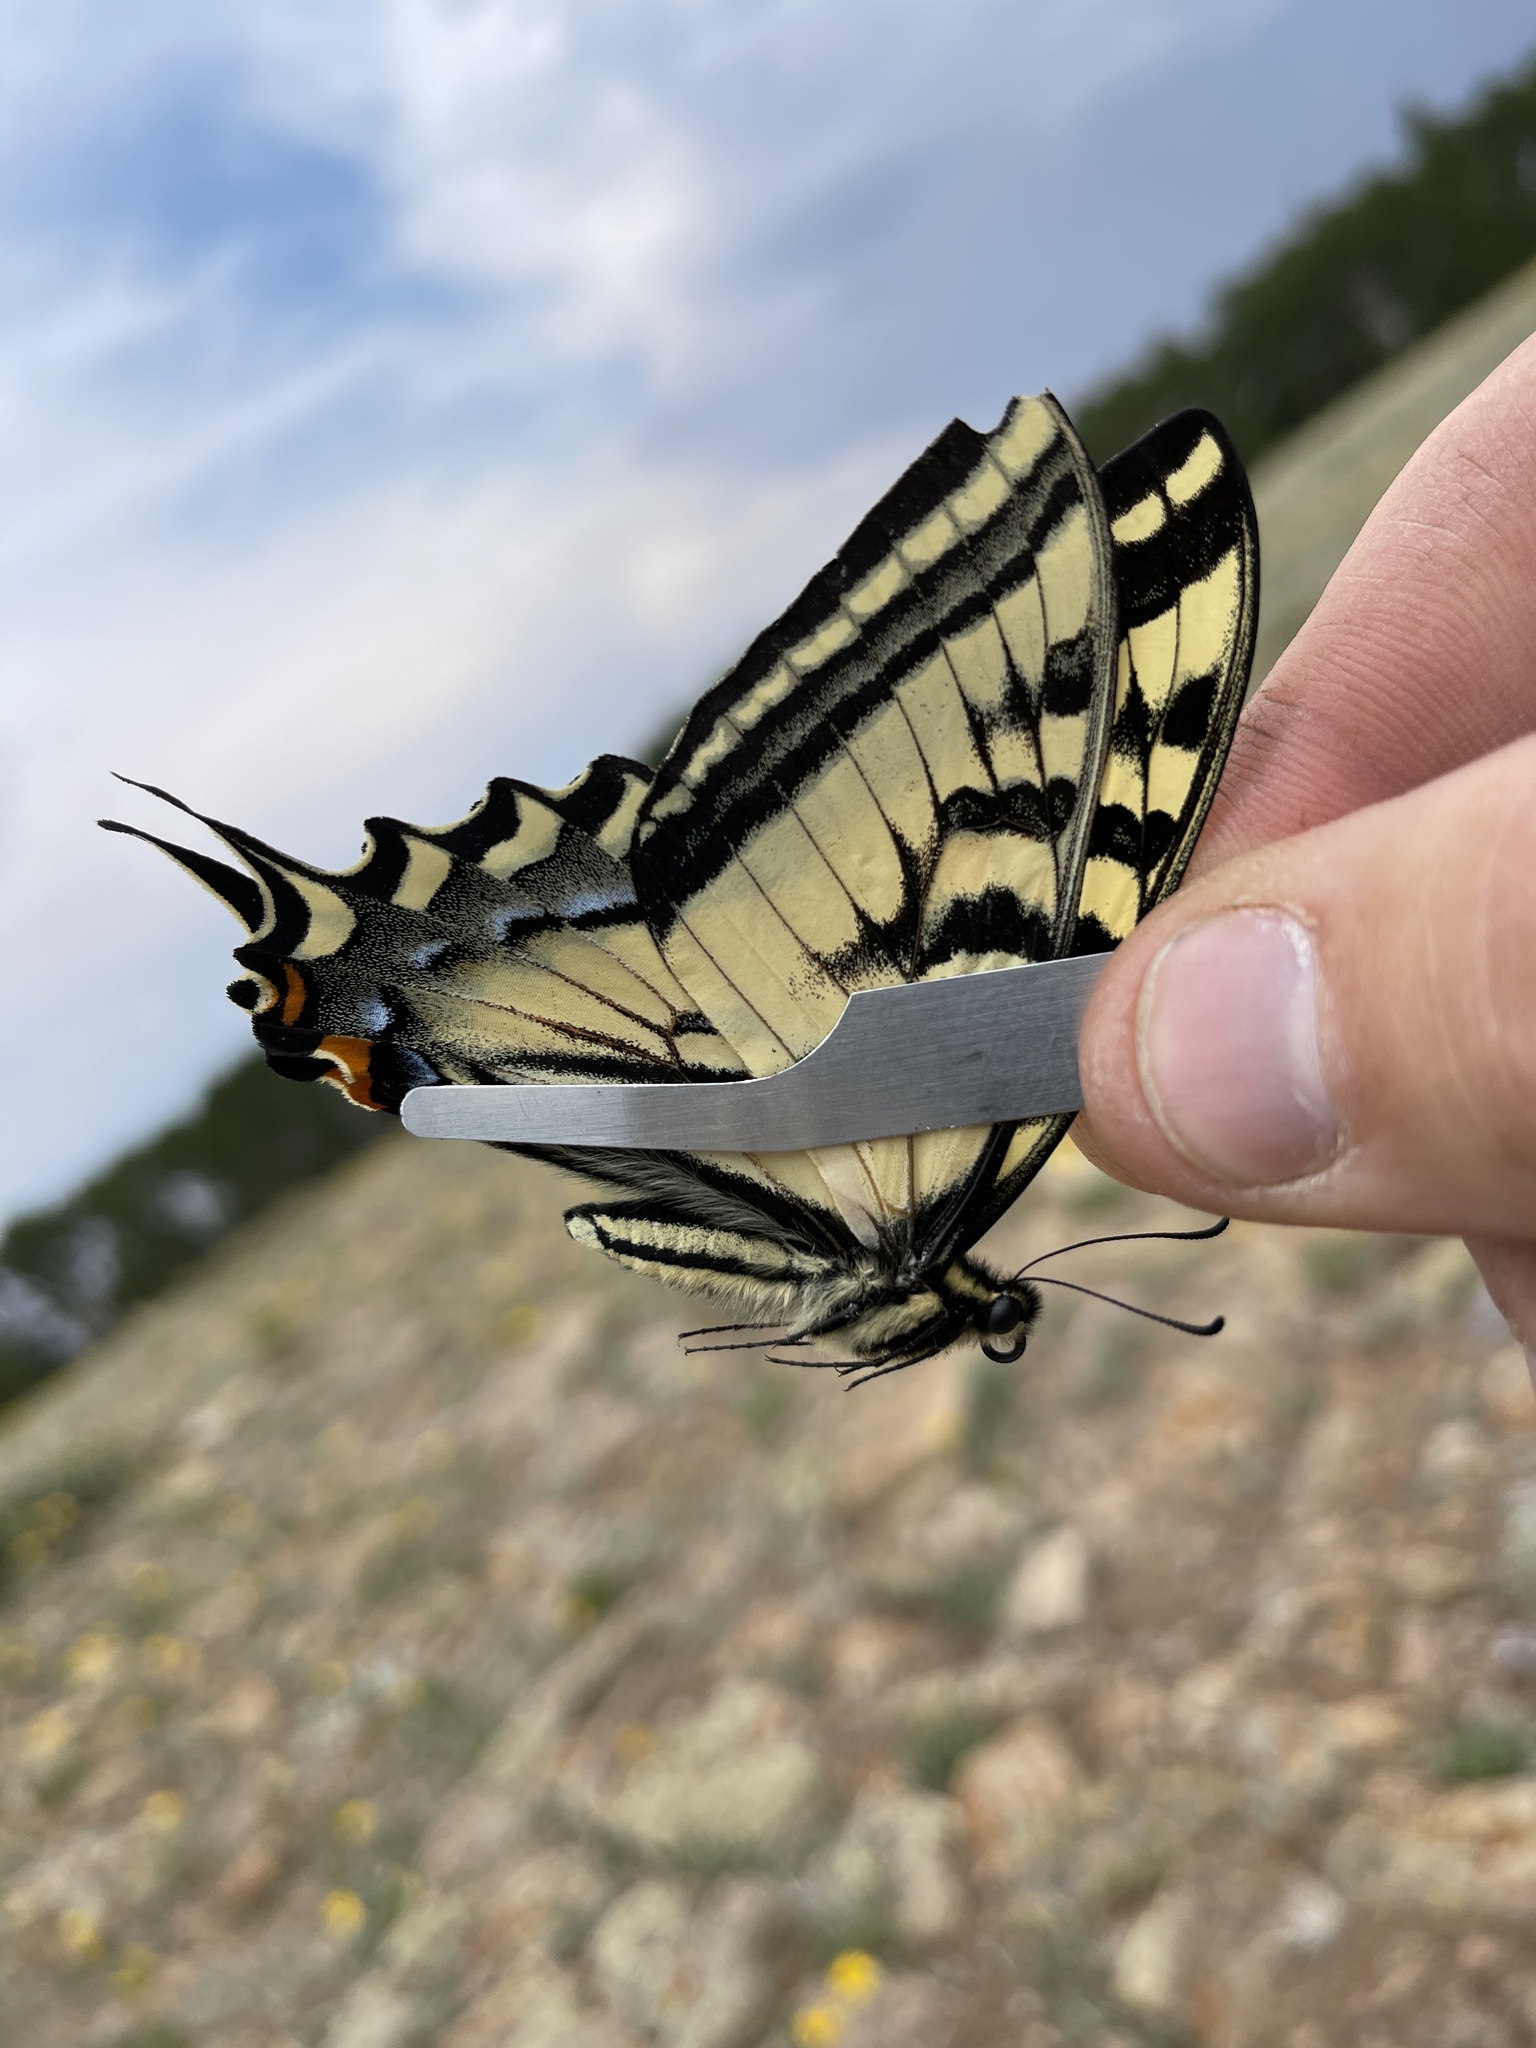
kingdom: Animalia
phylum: Arthropoda
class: Insecta
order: Lepidoptera
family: Papilionidae
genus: Papilio
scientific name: Papilio rutulus
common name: Western tiger swallowtail
